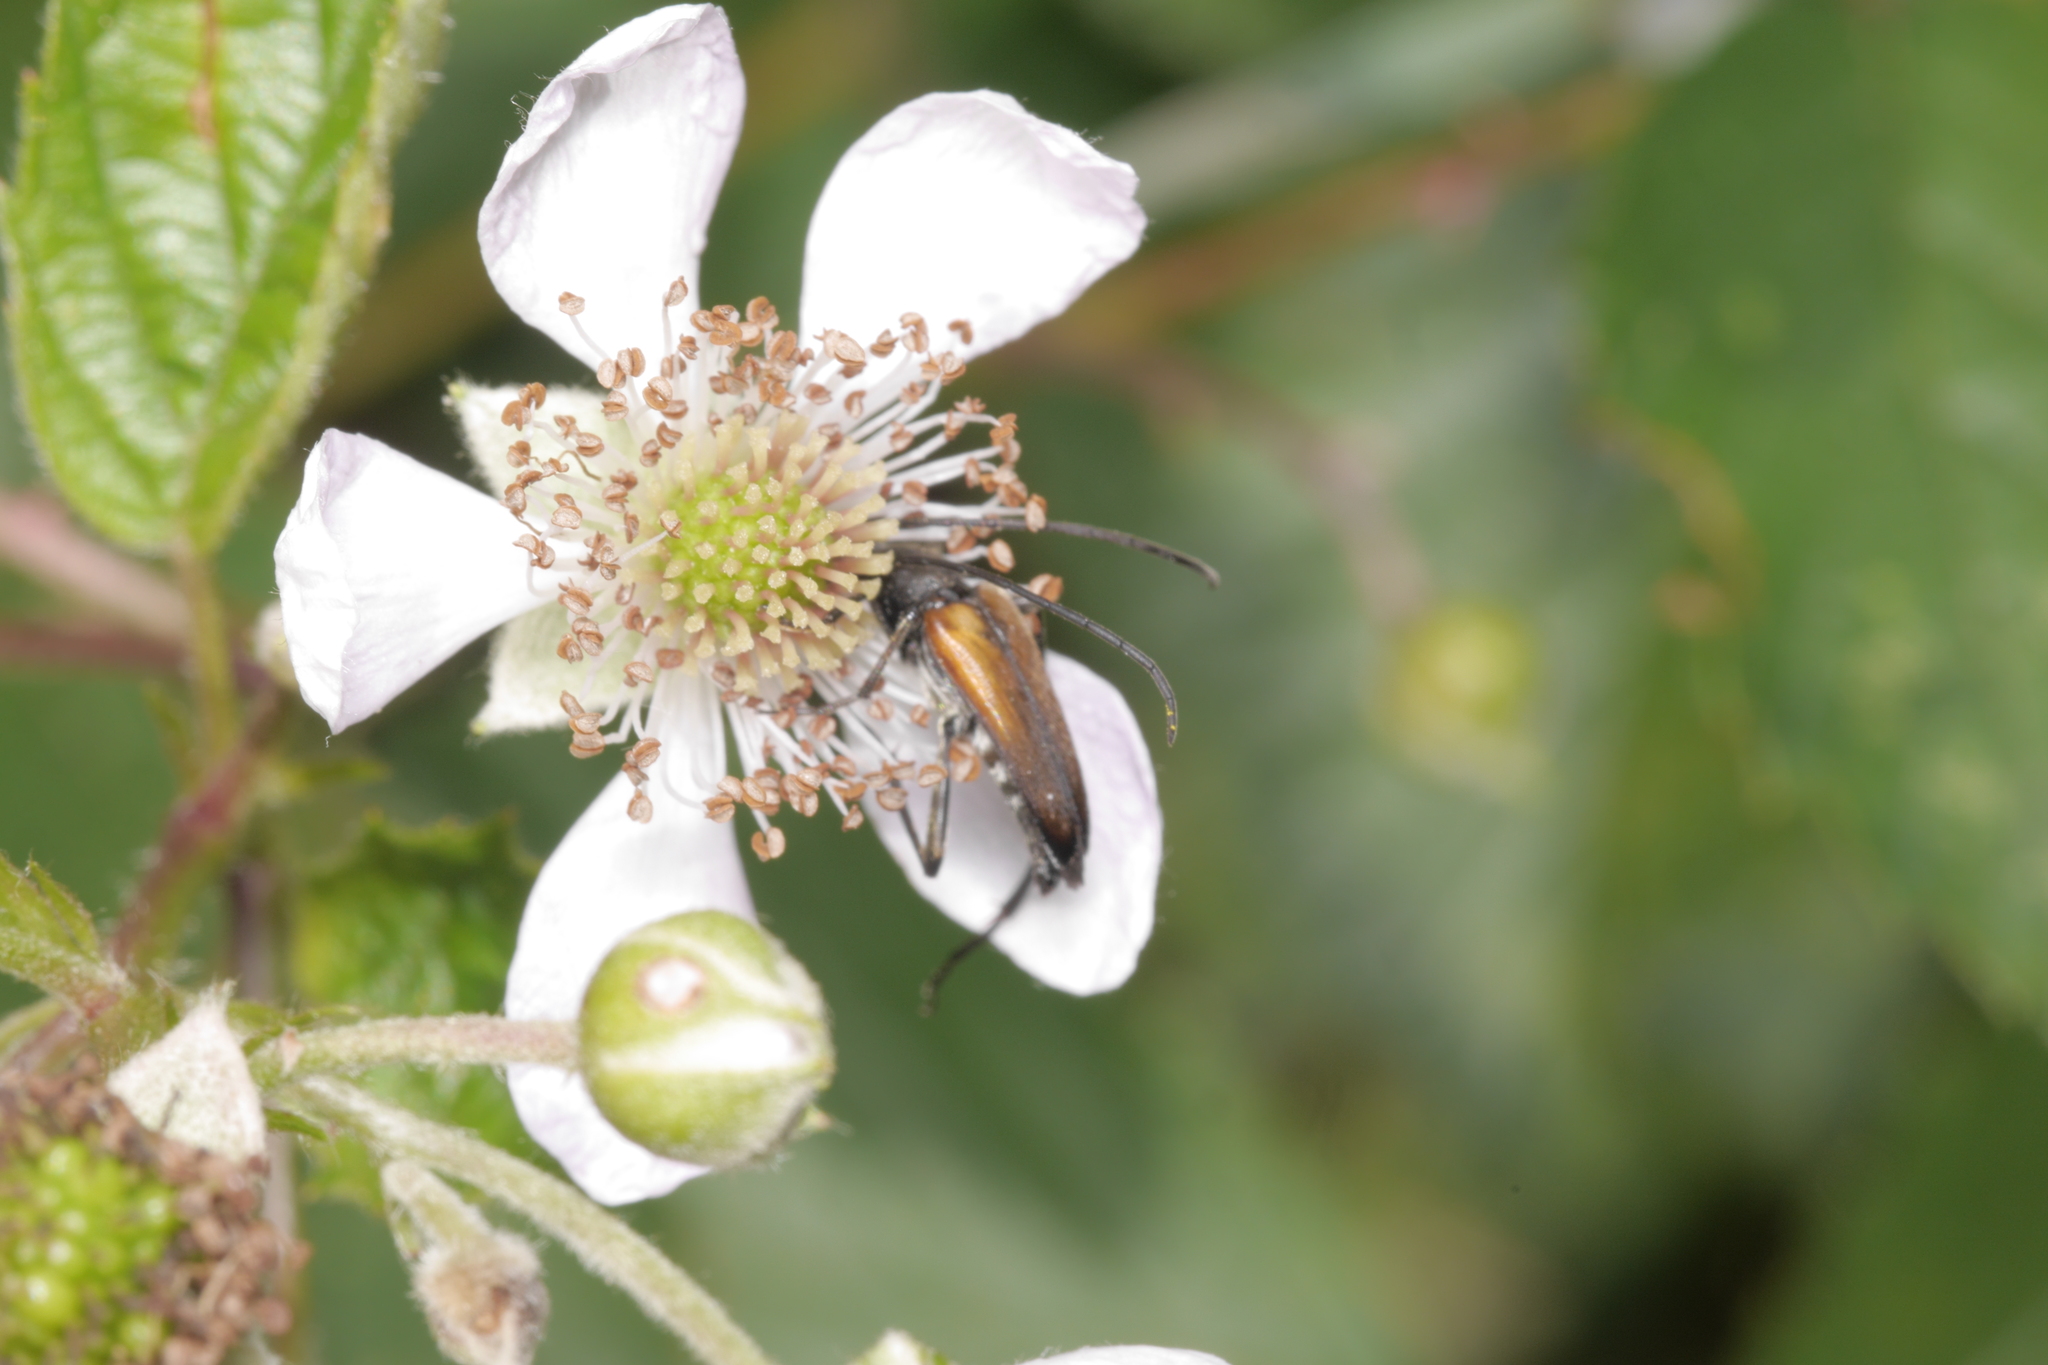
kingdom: Animalia
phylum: Arthropoda
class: Insecta
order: Coleoptera
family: Cerambycidae
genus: Stenurella
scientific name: Stenurella melanura
